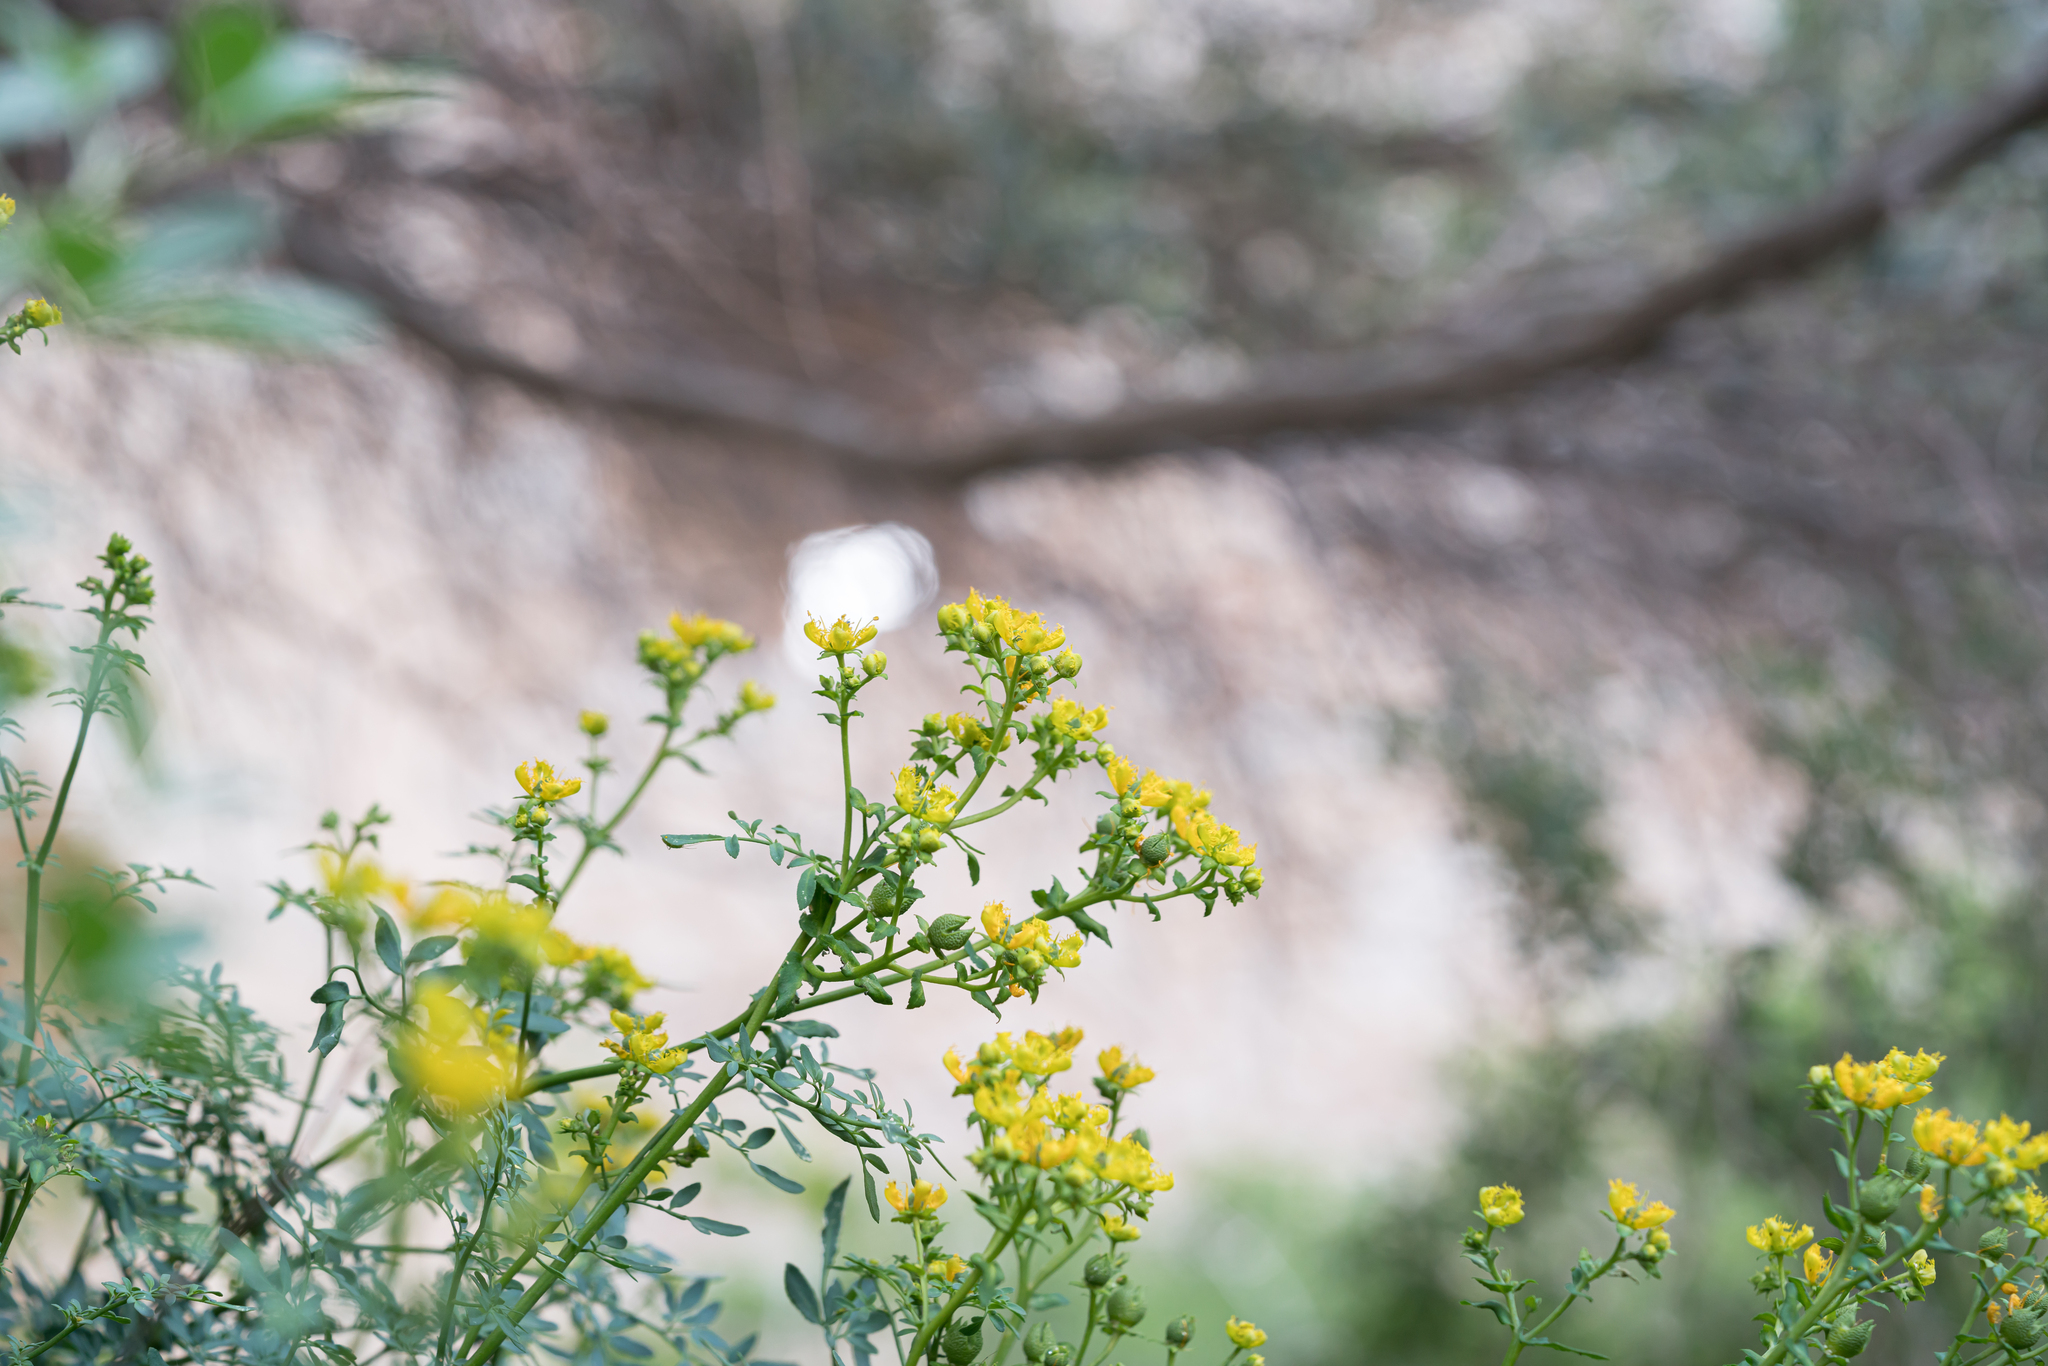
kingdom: Plantae
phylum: Tracheophyta
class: Magnoliopsida
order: Sapindales
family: Rutaceae
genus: Ruta
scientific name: Ruta chalepensis
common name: Fringed rue
